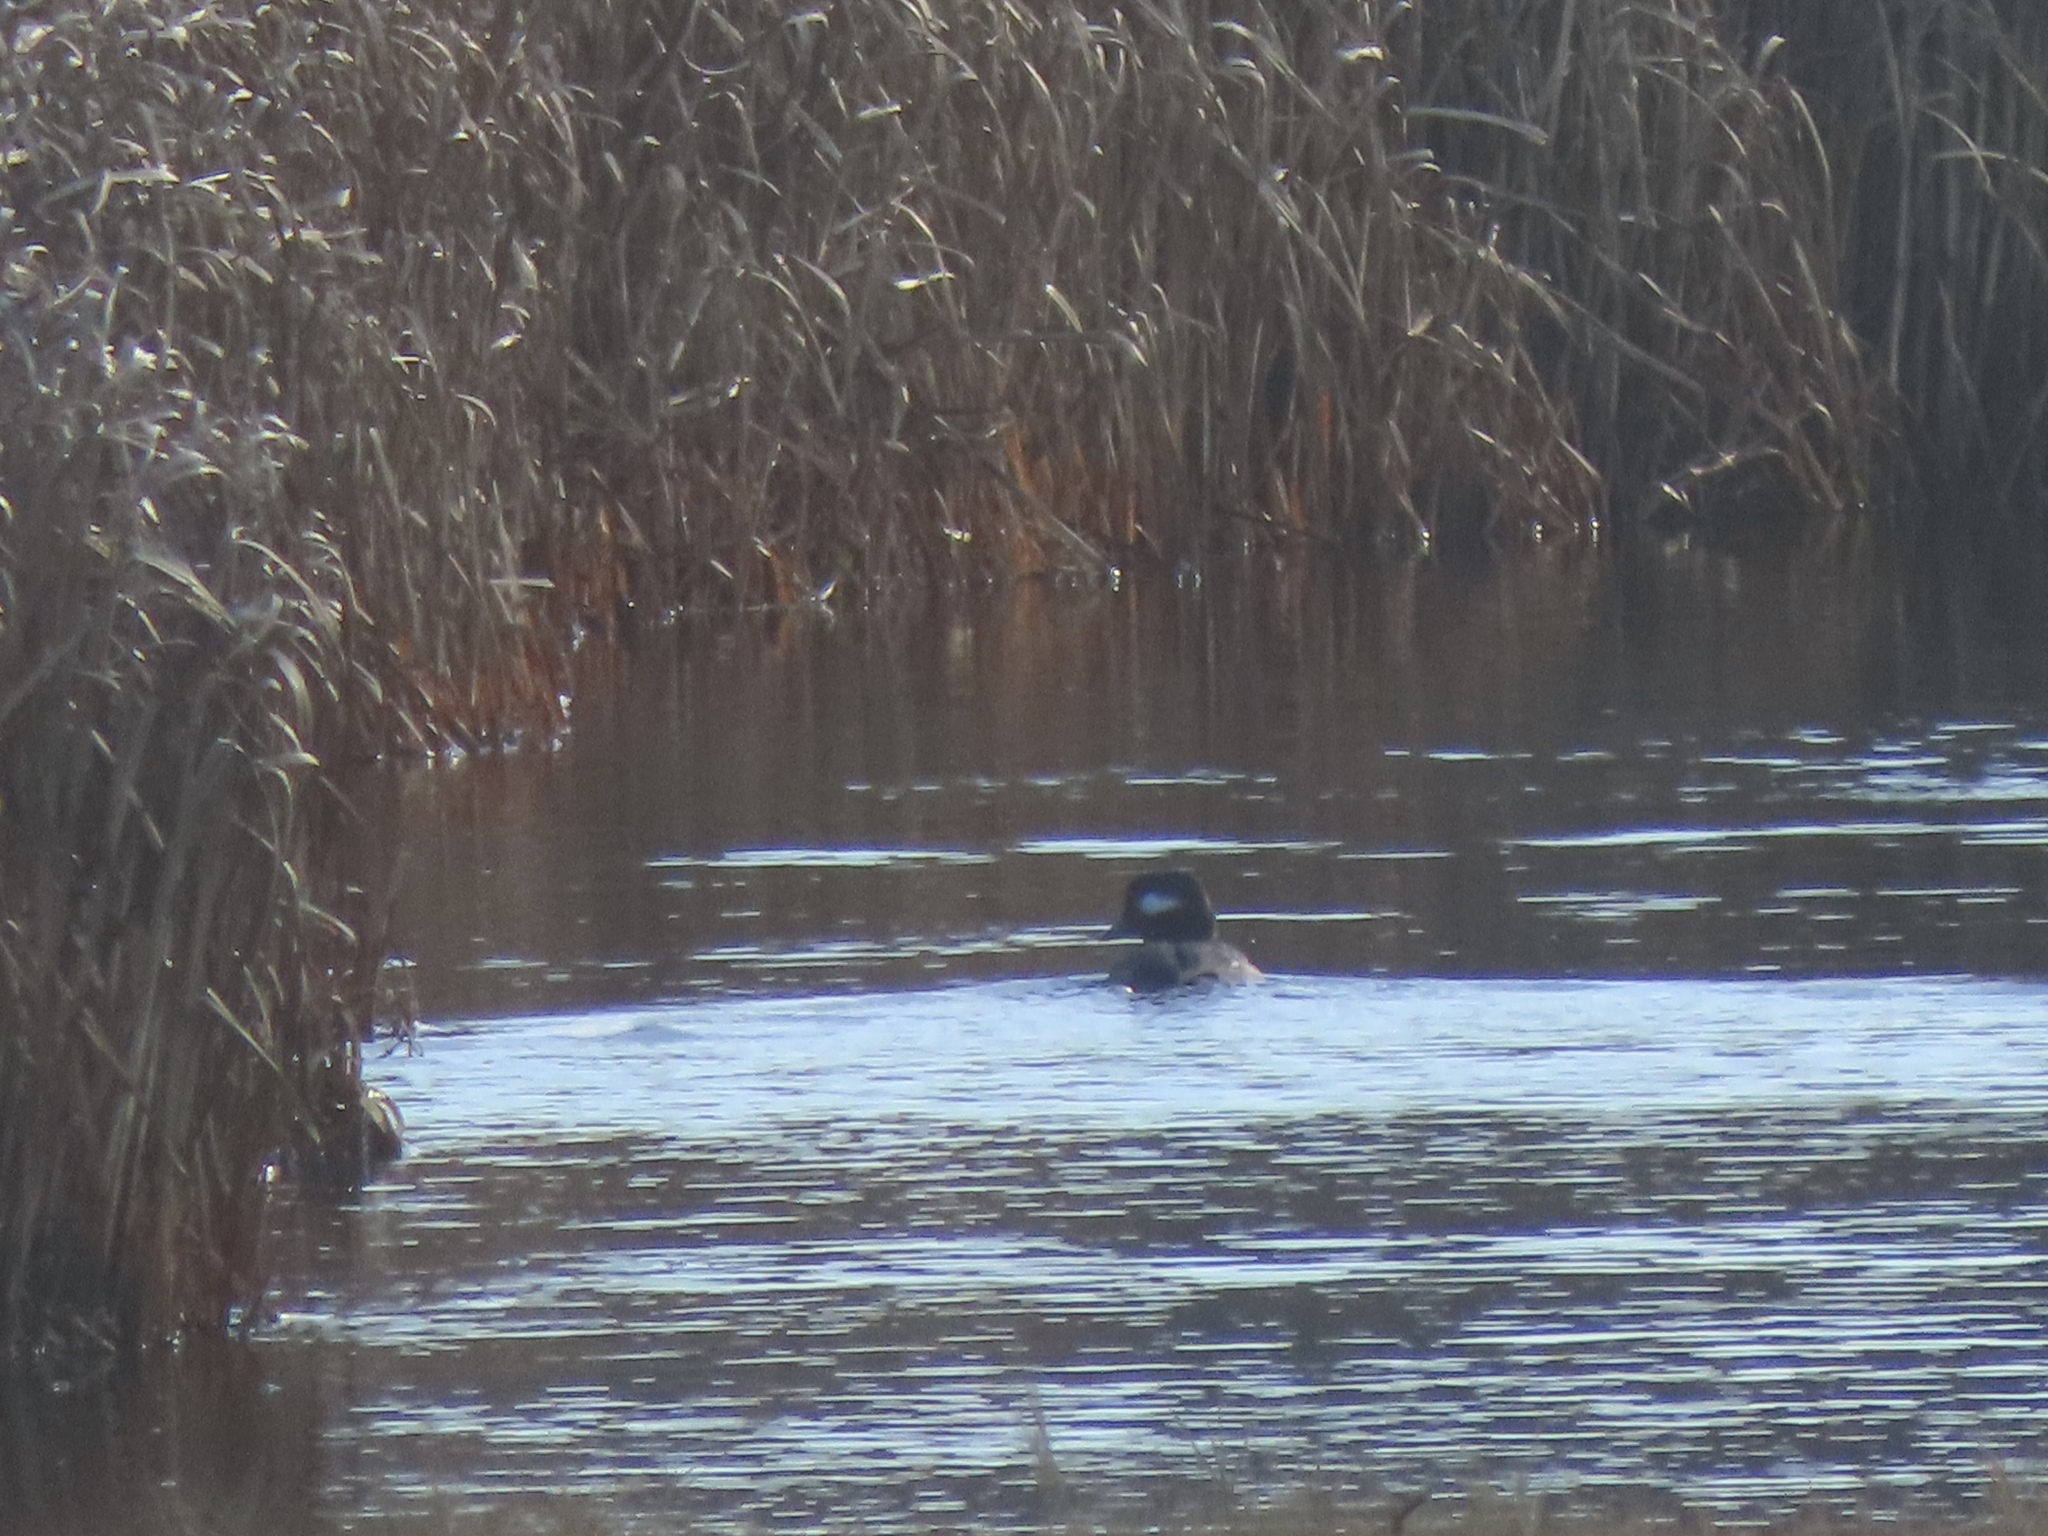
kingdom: Animalia
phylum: Chordata
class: Aves
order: Anseriformes
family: Anatidae
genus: Bucephala
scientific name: Bucephala albeola
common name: Bufflehead
